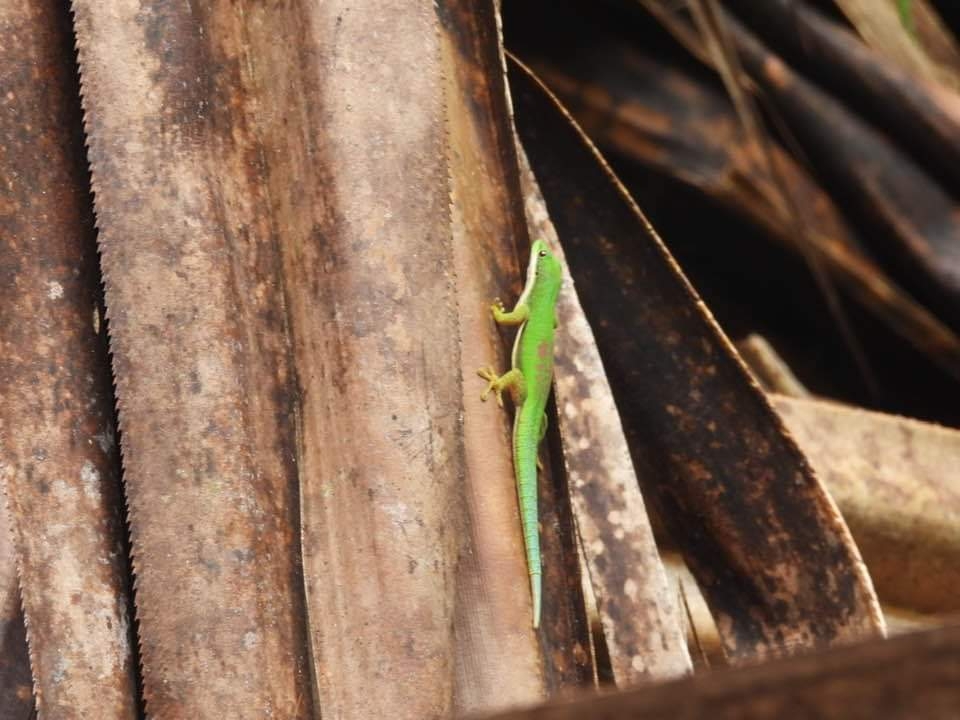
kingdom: Animalia
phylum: Chordata
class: Squamata
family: Gekkonidae
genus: Phelsuma
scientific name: Phelsuma lineata
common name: Lined day gecko
